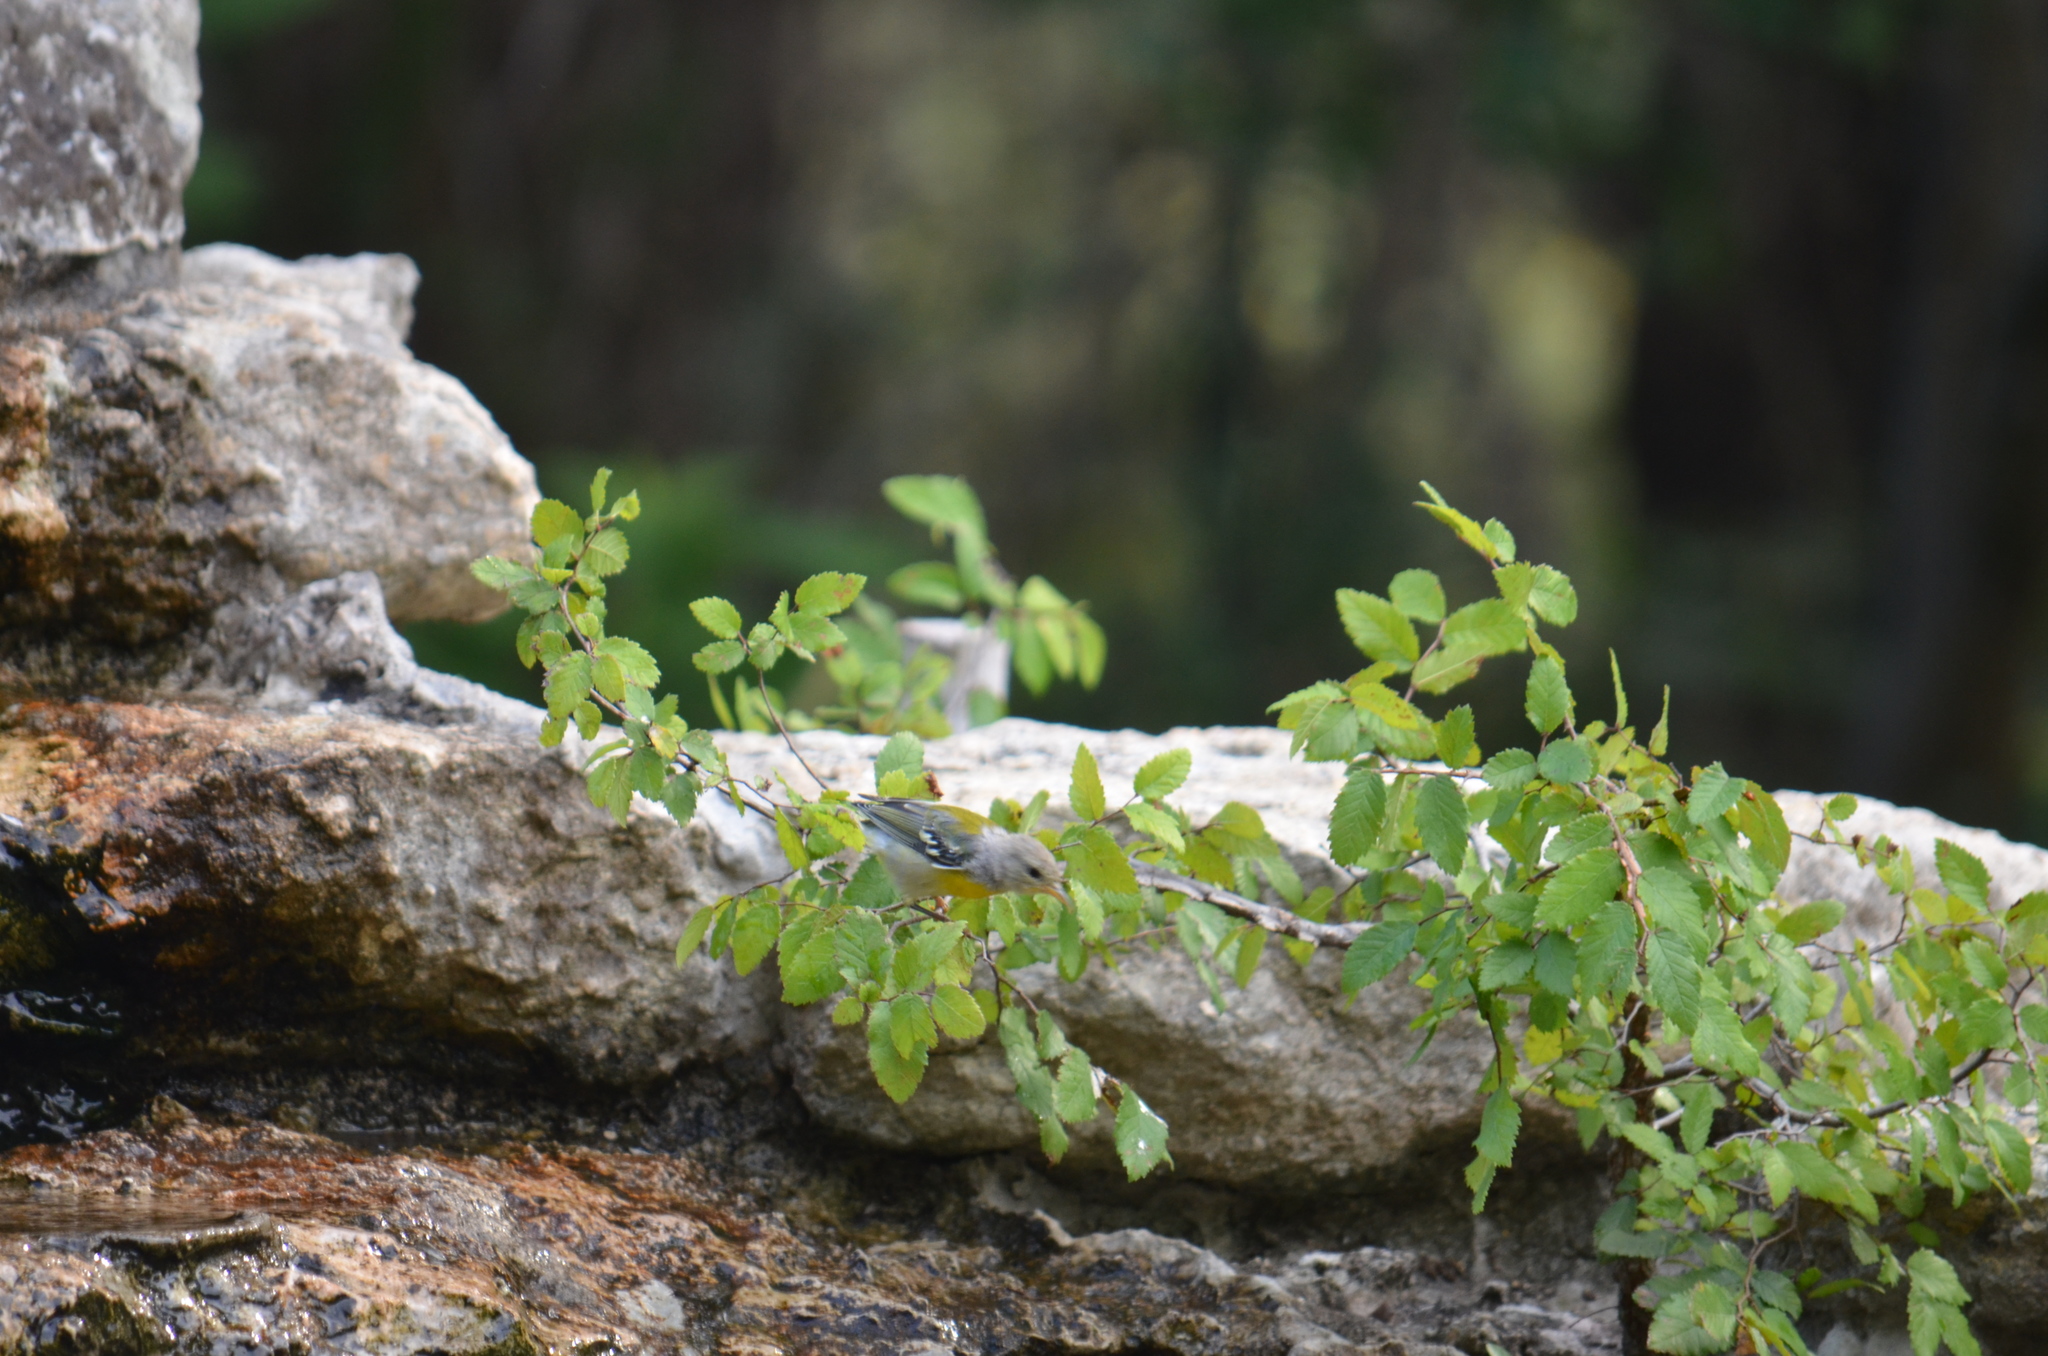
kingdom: Animalia
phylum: Chordata
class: Aves
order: Passeriformes
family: Parulidae
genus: Setophaga
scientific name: Setophaga americana
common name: Northern parula
